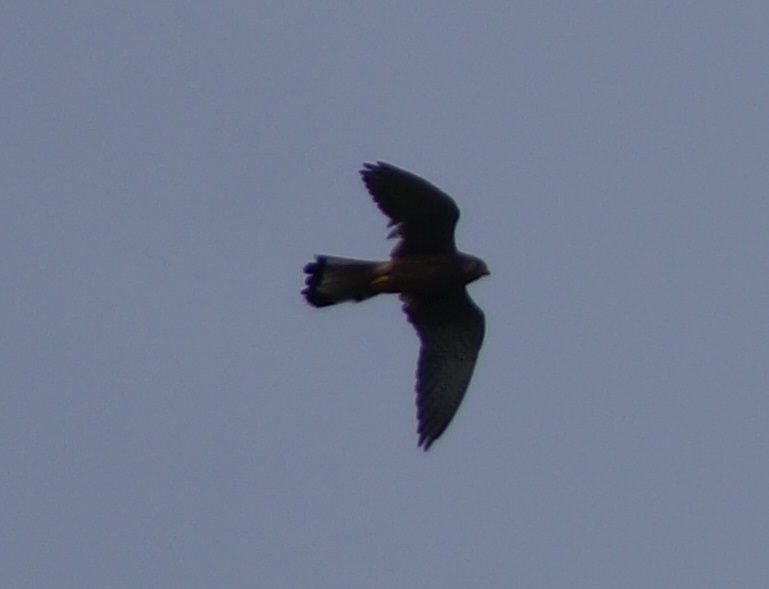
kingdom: Animalia
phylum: Chordata
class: Aves
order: Falconiformes
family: Falconidae
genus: Falco
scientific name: Falco tinnunculus
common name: Common kestrel
